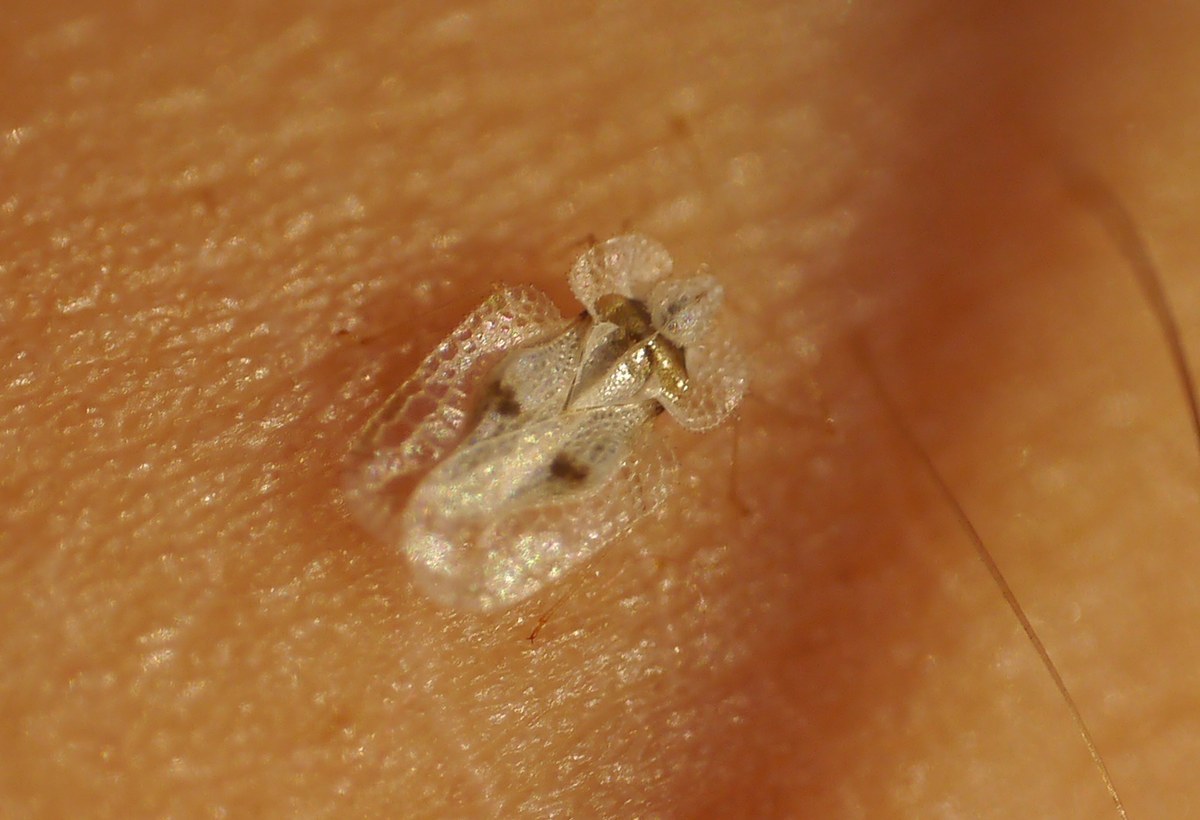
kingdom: Animalia
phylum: Arthropoda
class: Insecta
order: Hemiptera
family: Tingidae
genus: Corythucha
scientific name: Corythucha ciliata
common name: Sycamore lace bug
